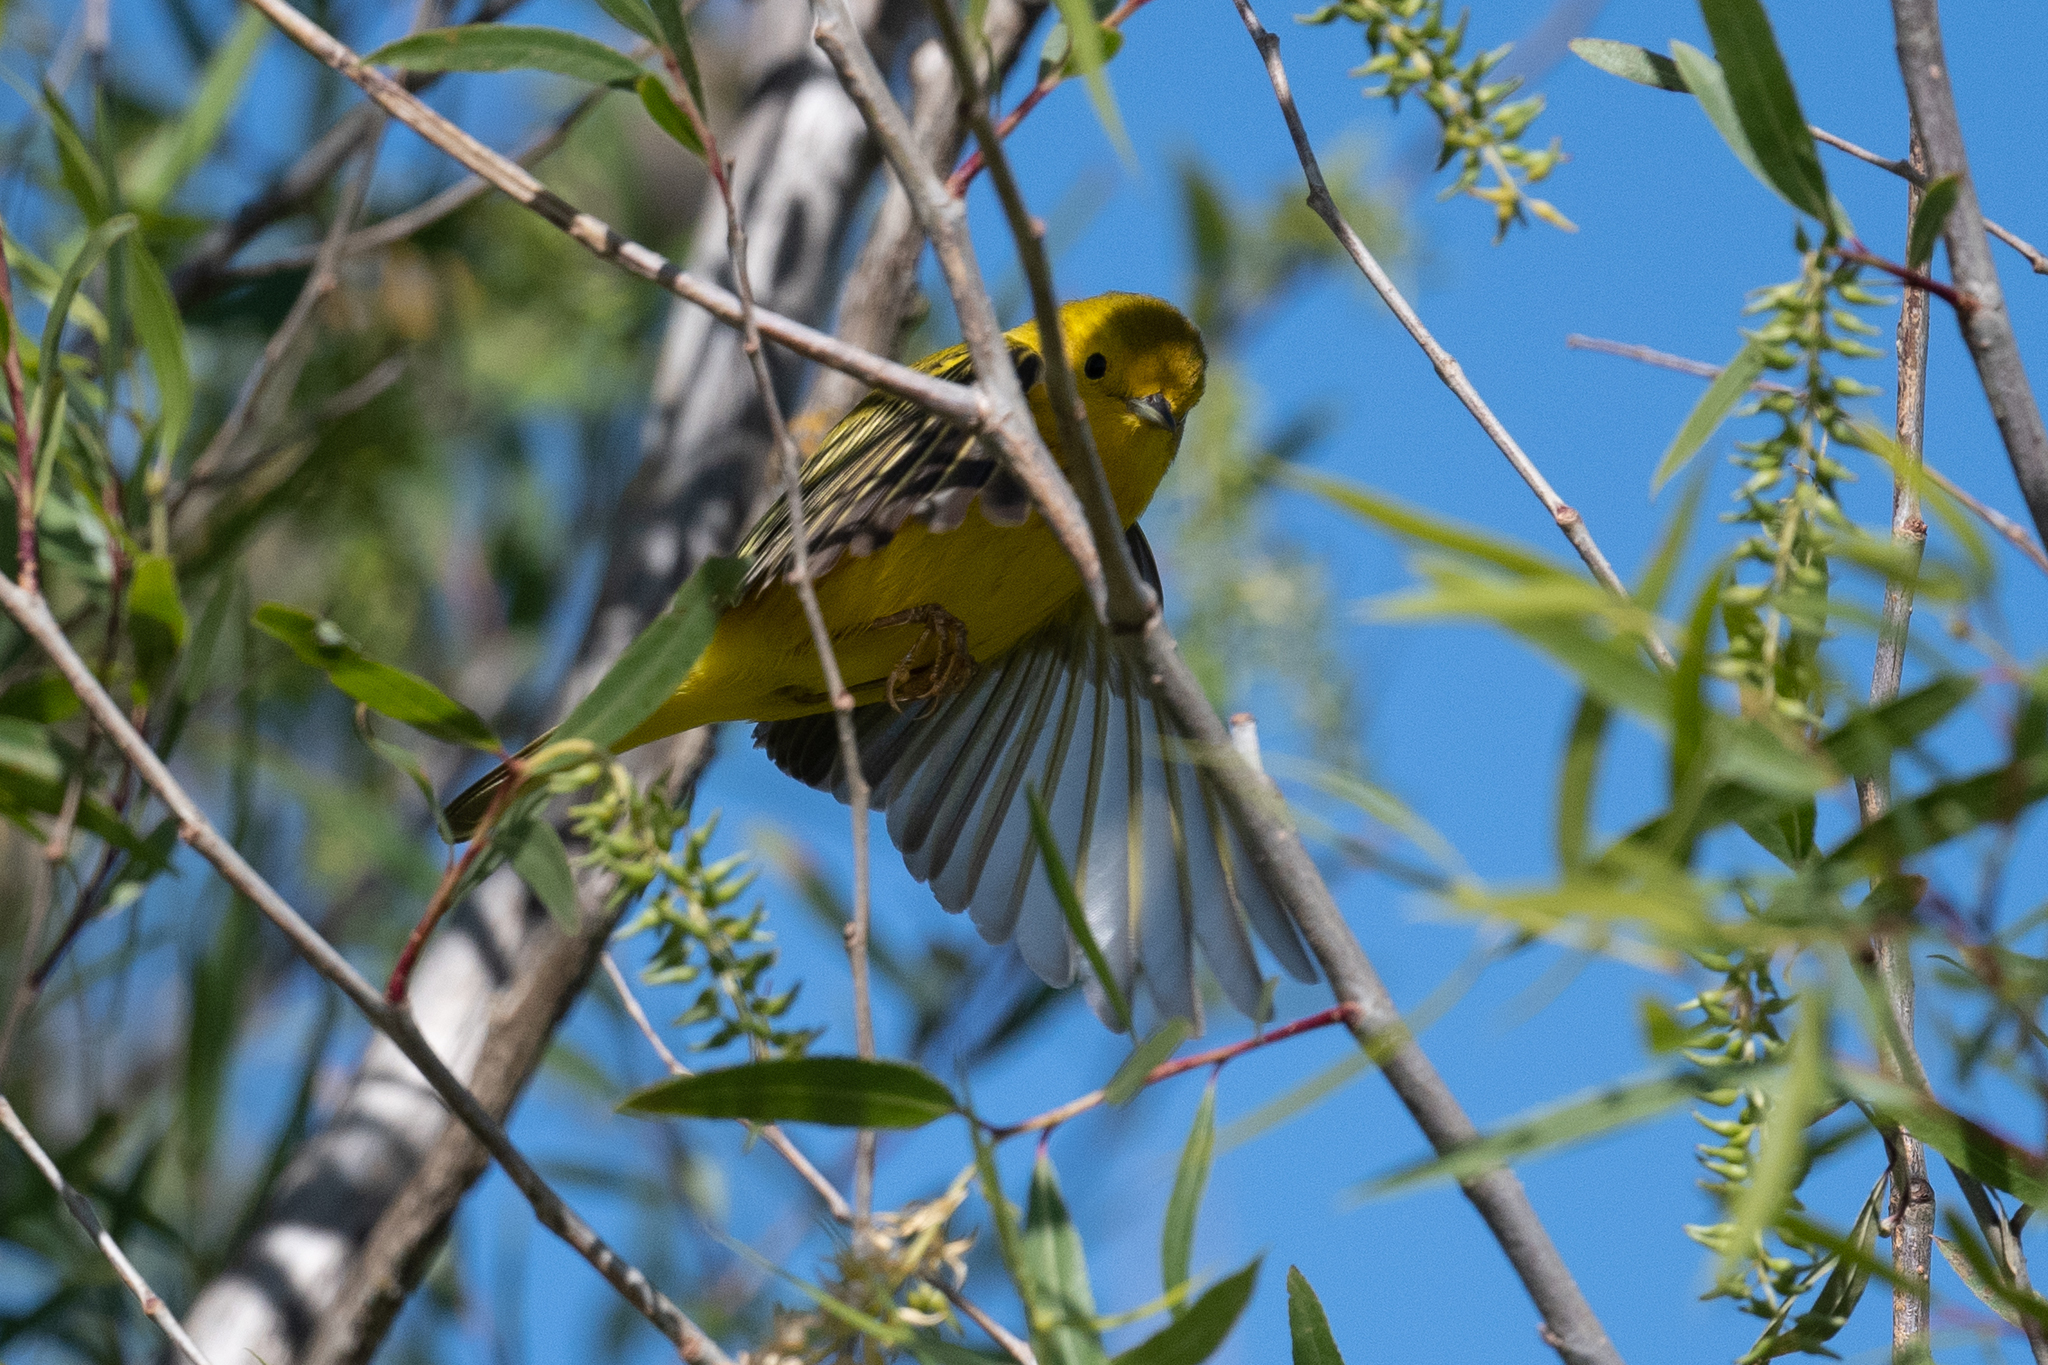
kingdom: Animalia
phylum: Chordata
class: Aves
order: Passeriformes
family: Parulidae
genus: Setophaga
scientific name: Setophaga petechia
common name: Yellow warbler
